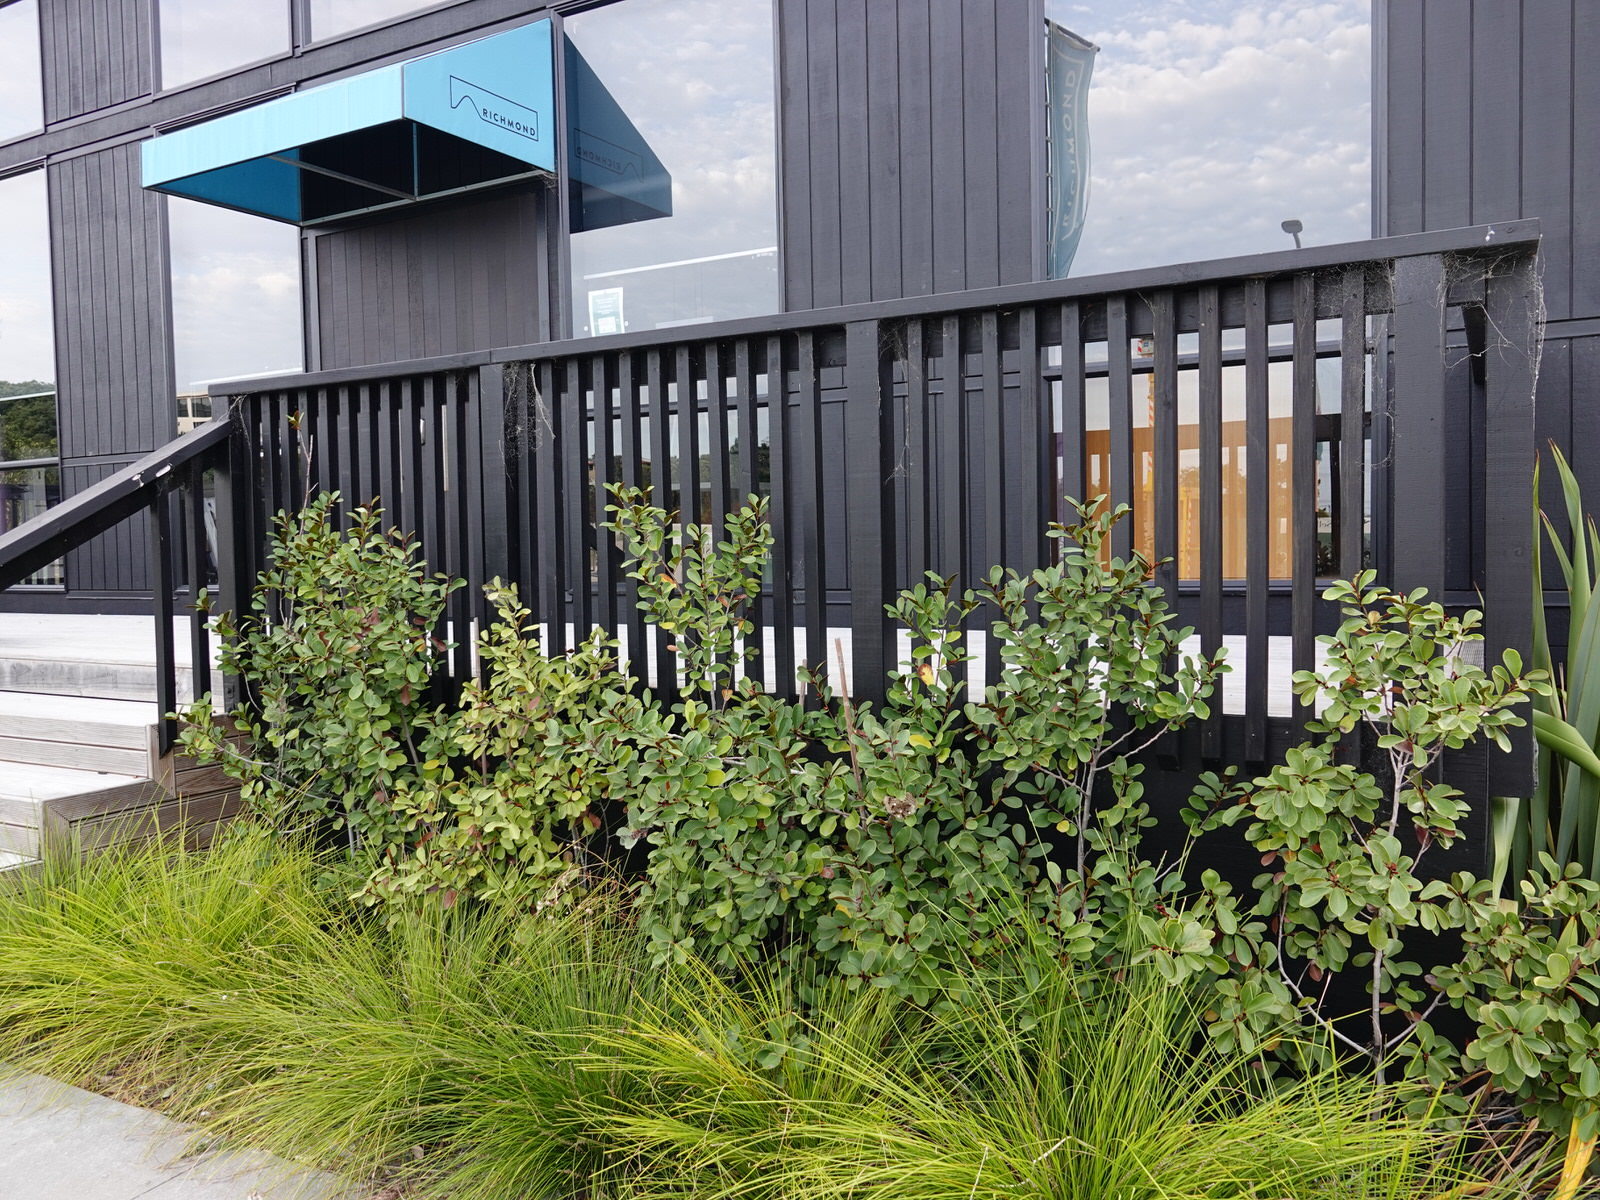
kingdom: Animalia
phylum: Arthropoda
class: Insecta
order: Hymenoptera
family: Eumenidae
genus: Polistes
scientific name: Polistes chinensis
